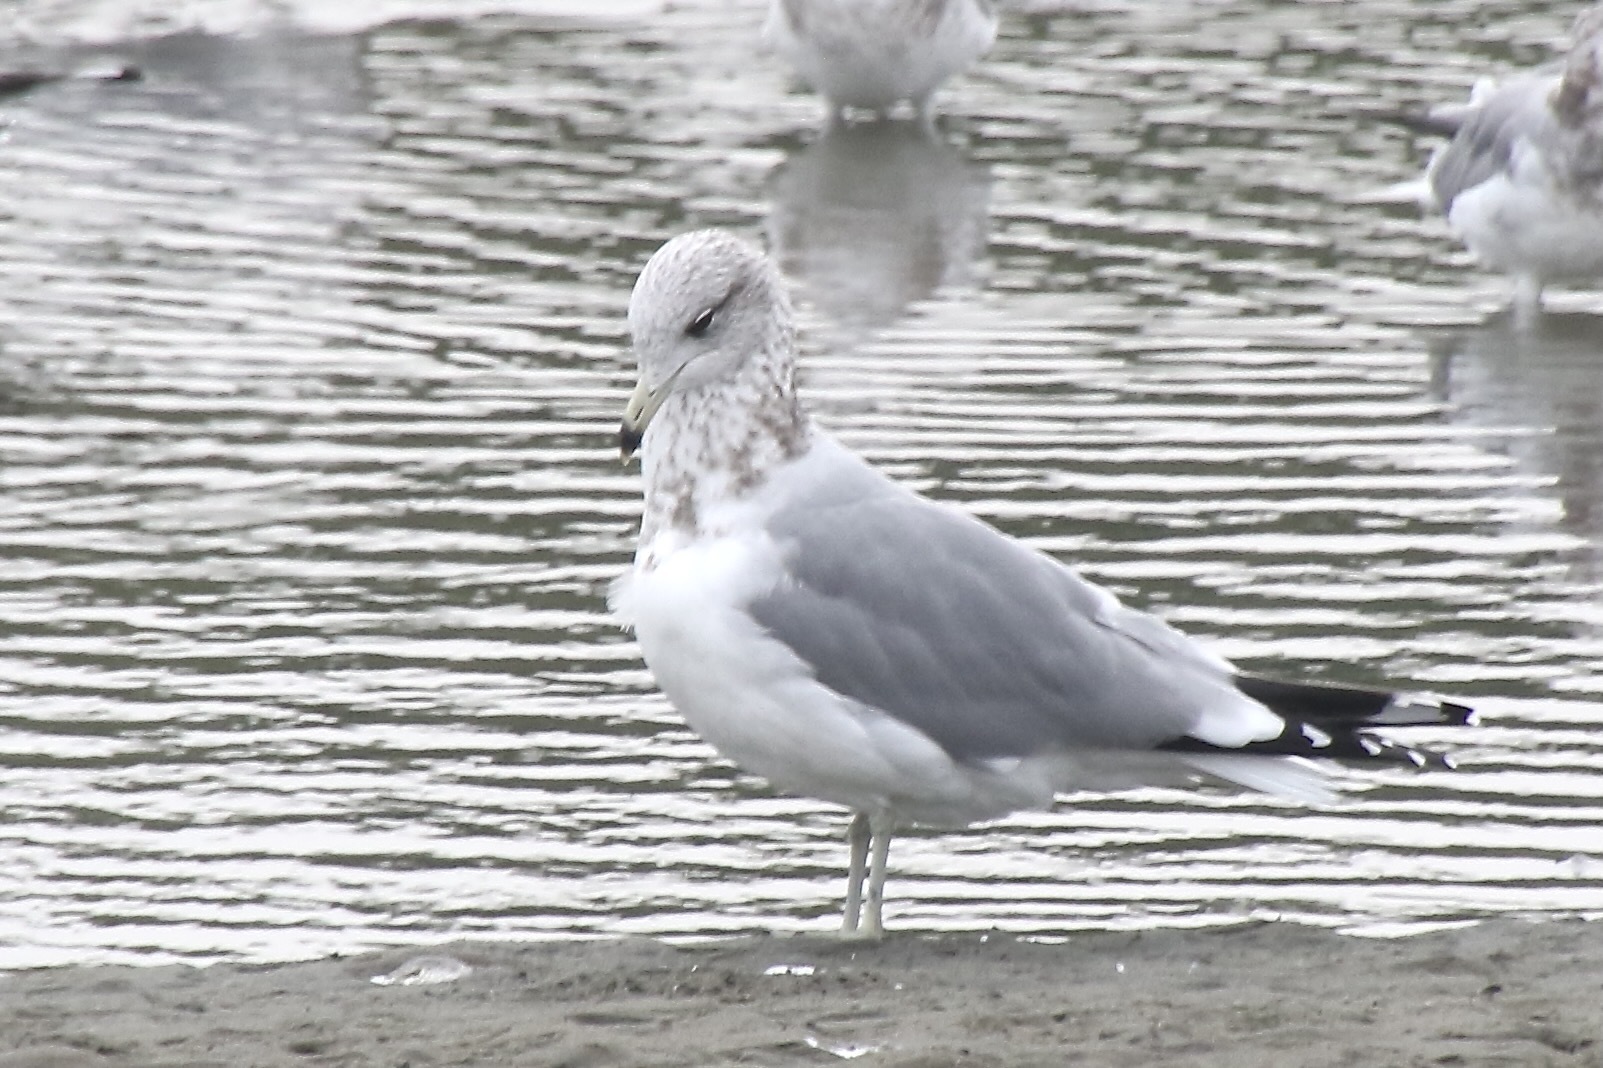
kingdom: Animalia
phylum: Chordata
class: Aves
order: Charadriiformes
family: Laridae
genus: Larus
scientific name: Larus californicus
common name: California gull
